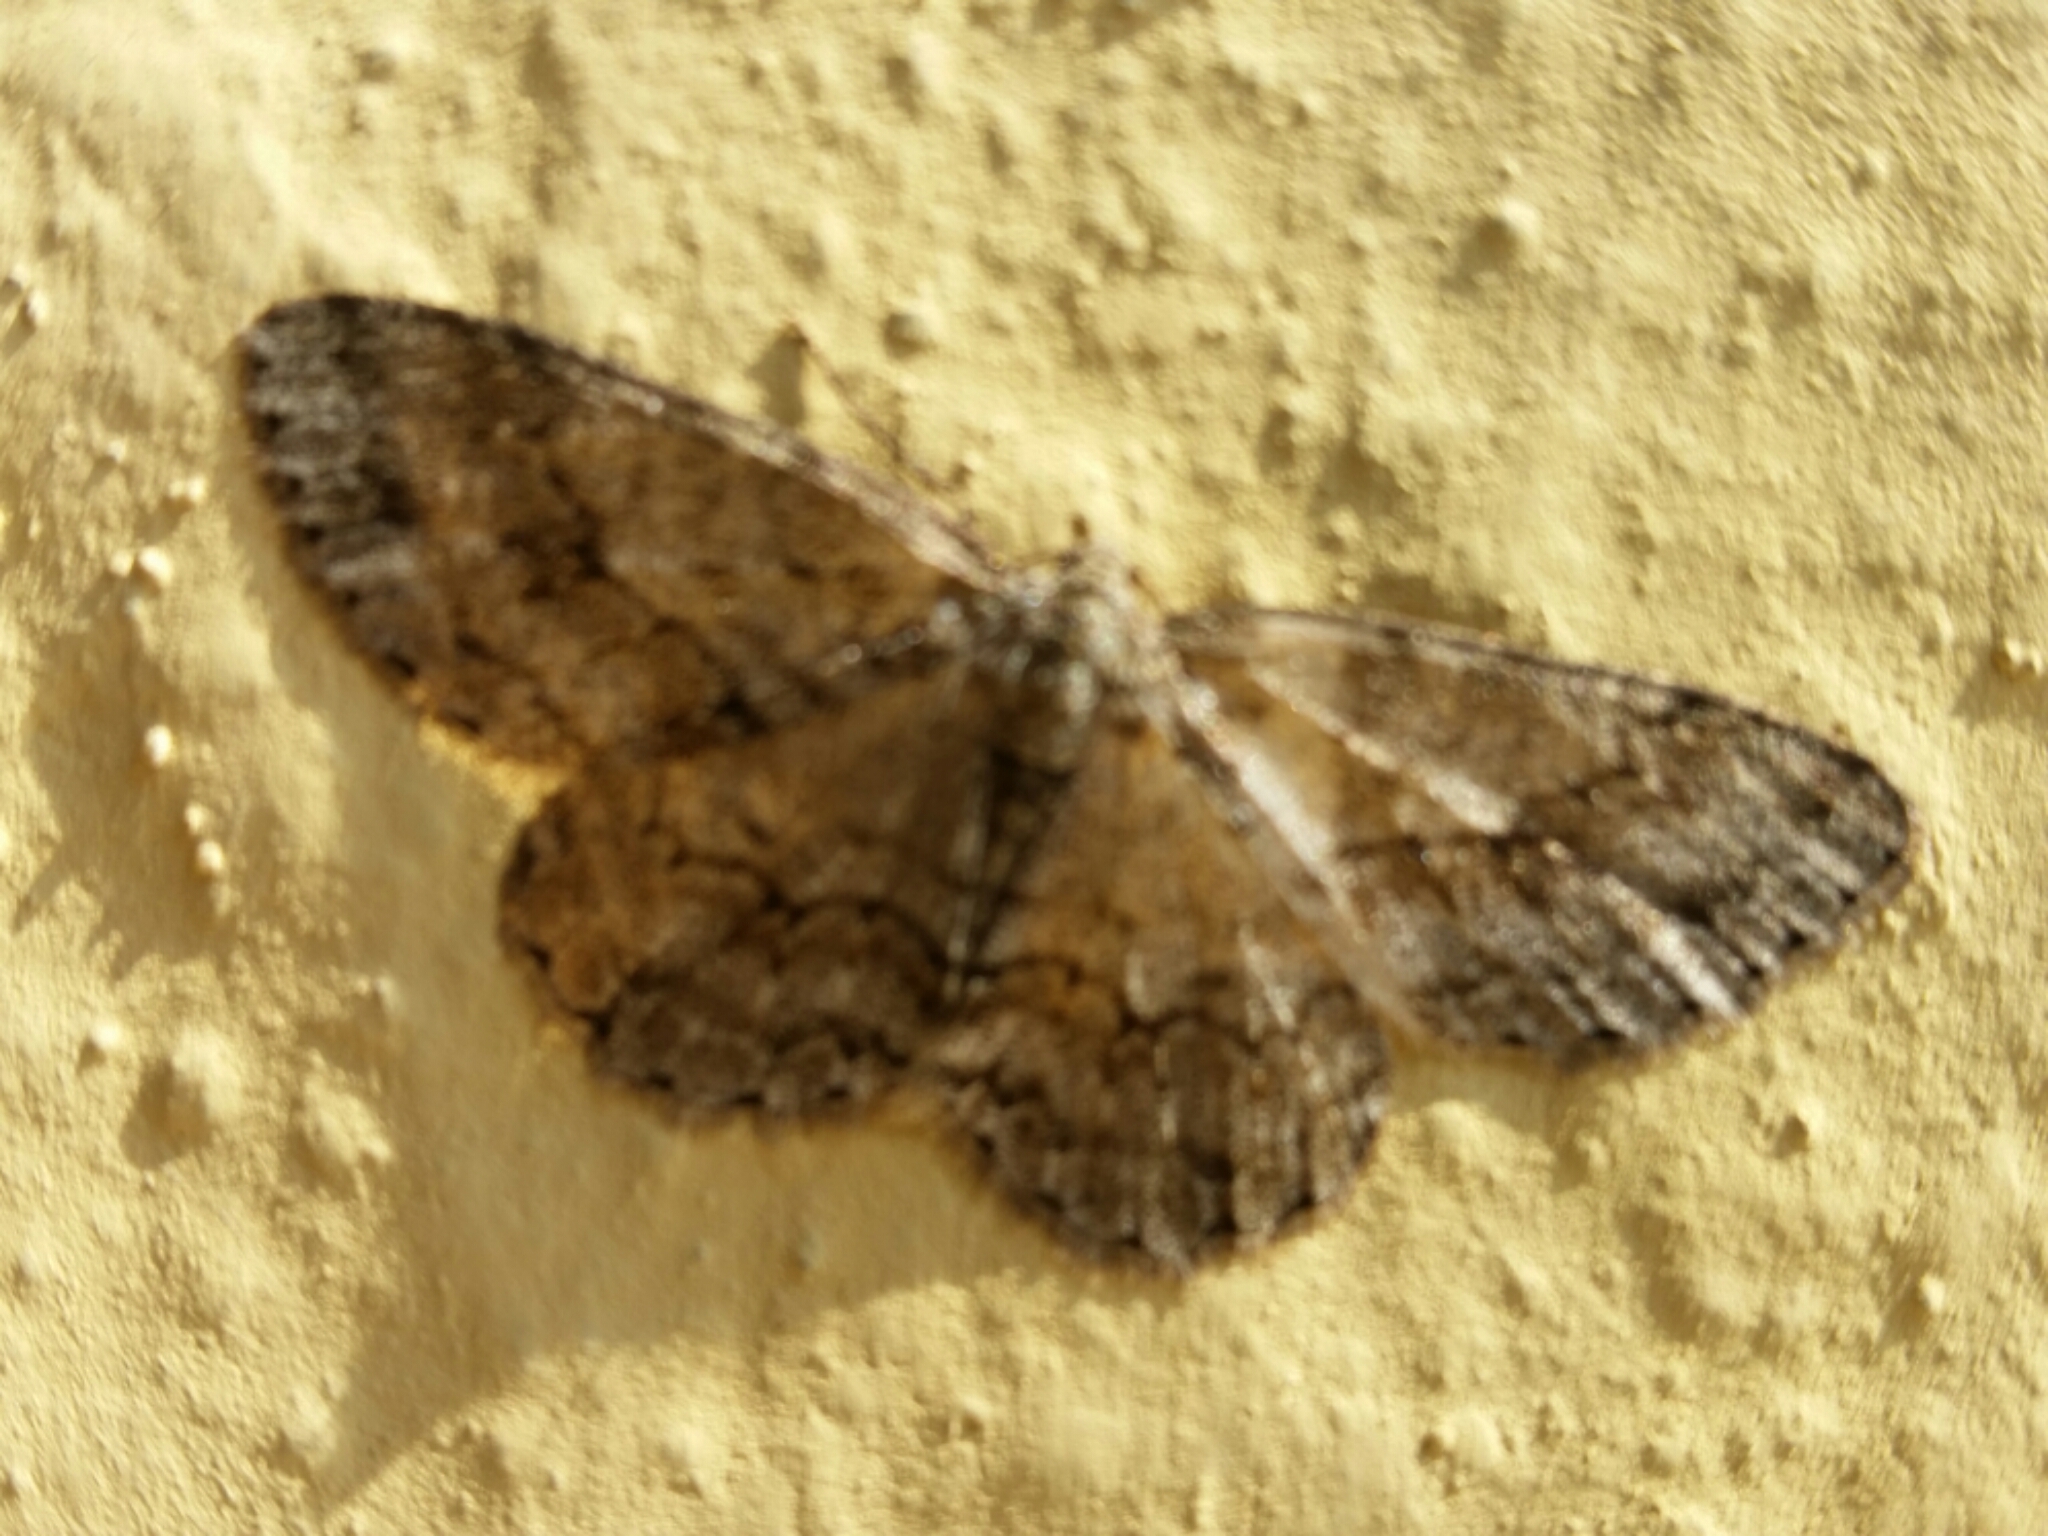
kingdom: Animalia
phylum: Arthropoda
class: Insecta
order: Lepidoptera
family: Geometridae
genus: Ectropis
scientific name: Ectropis crepuscularia
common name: Engrailed
